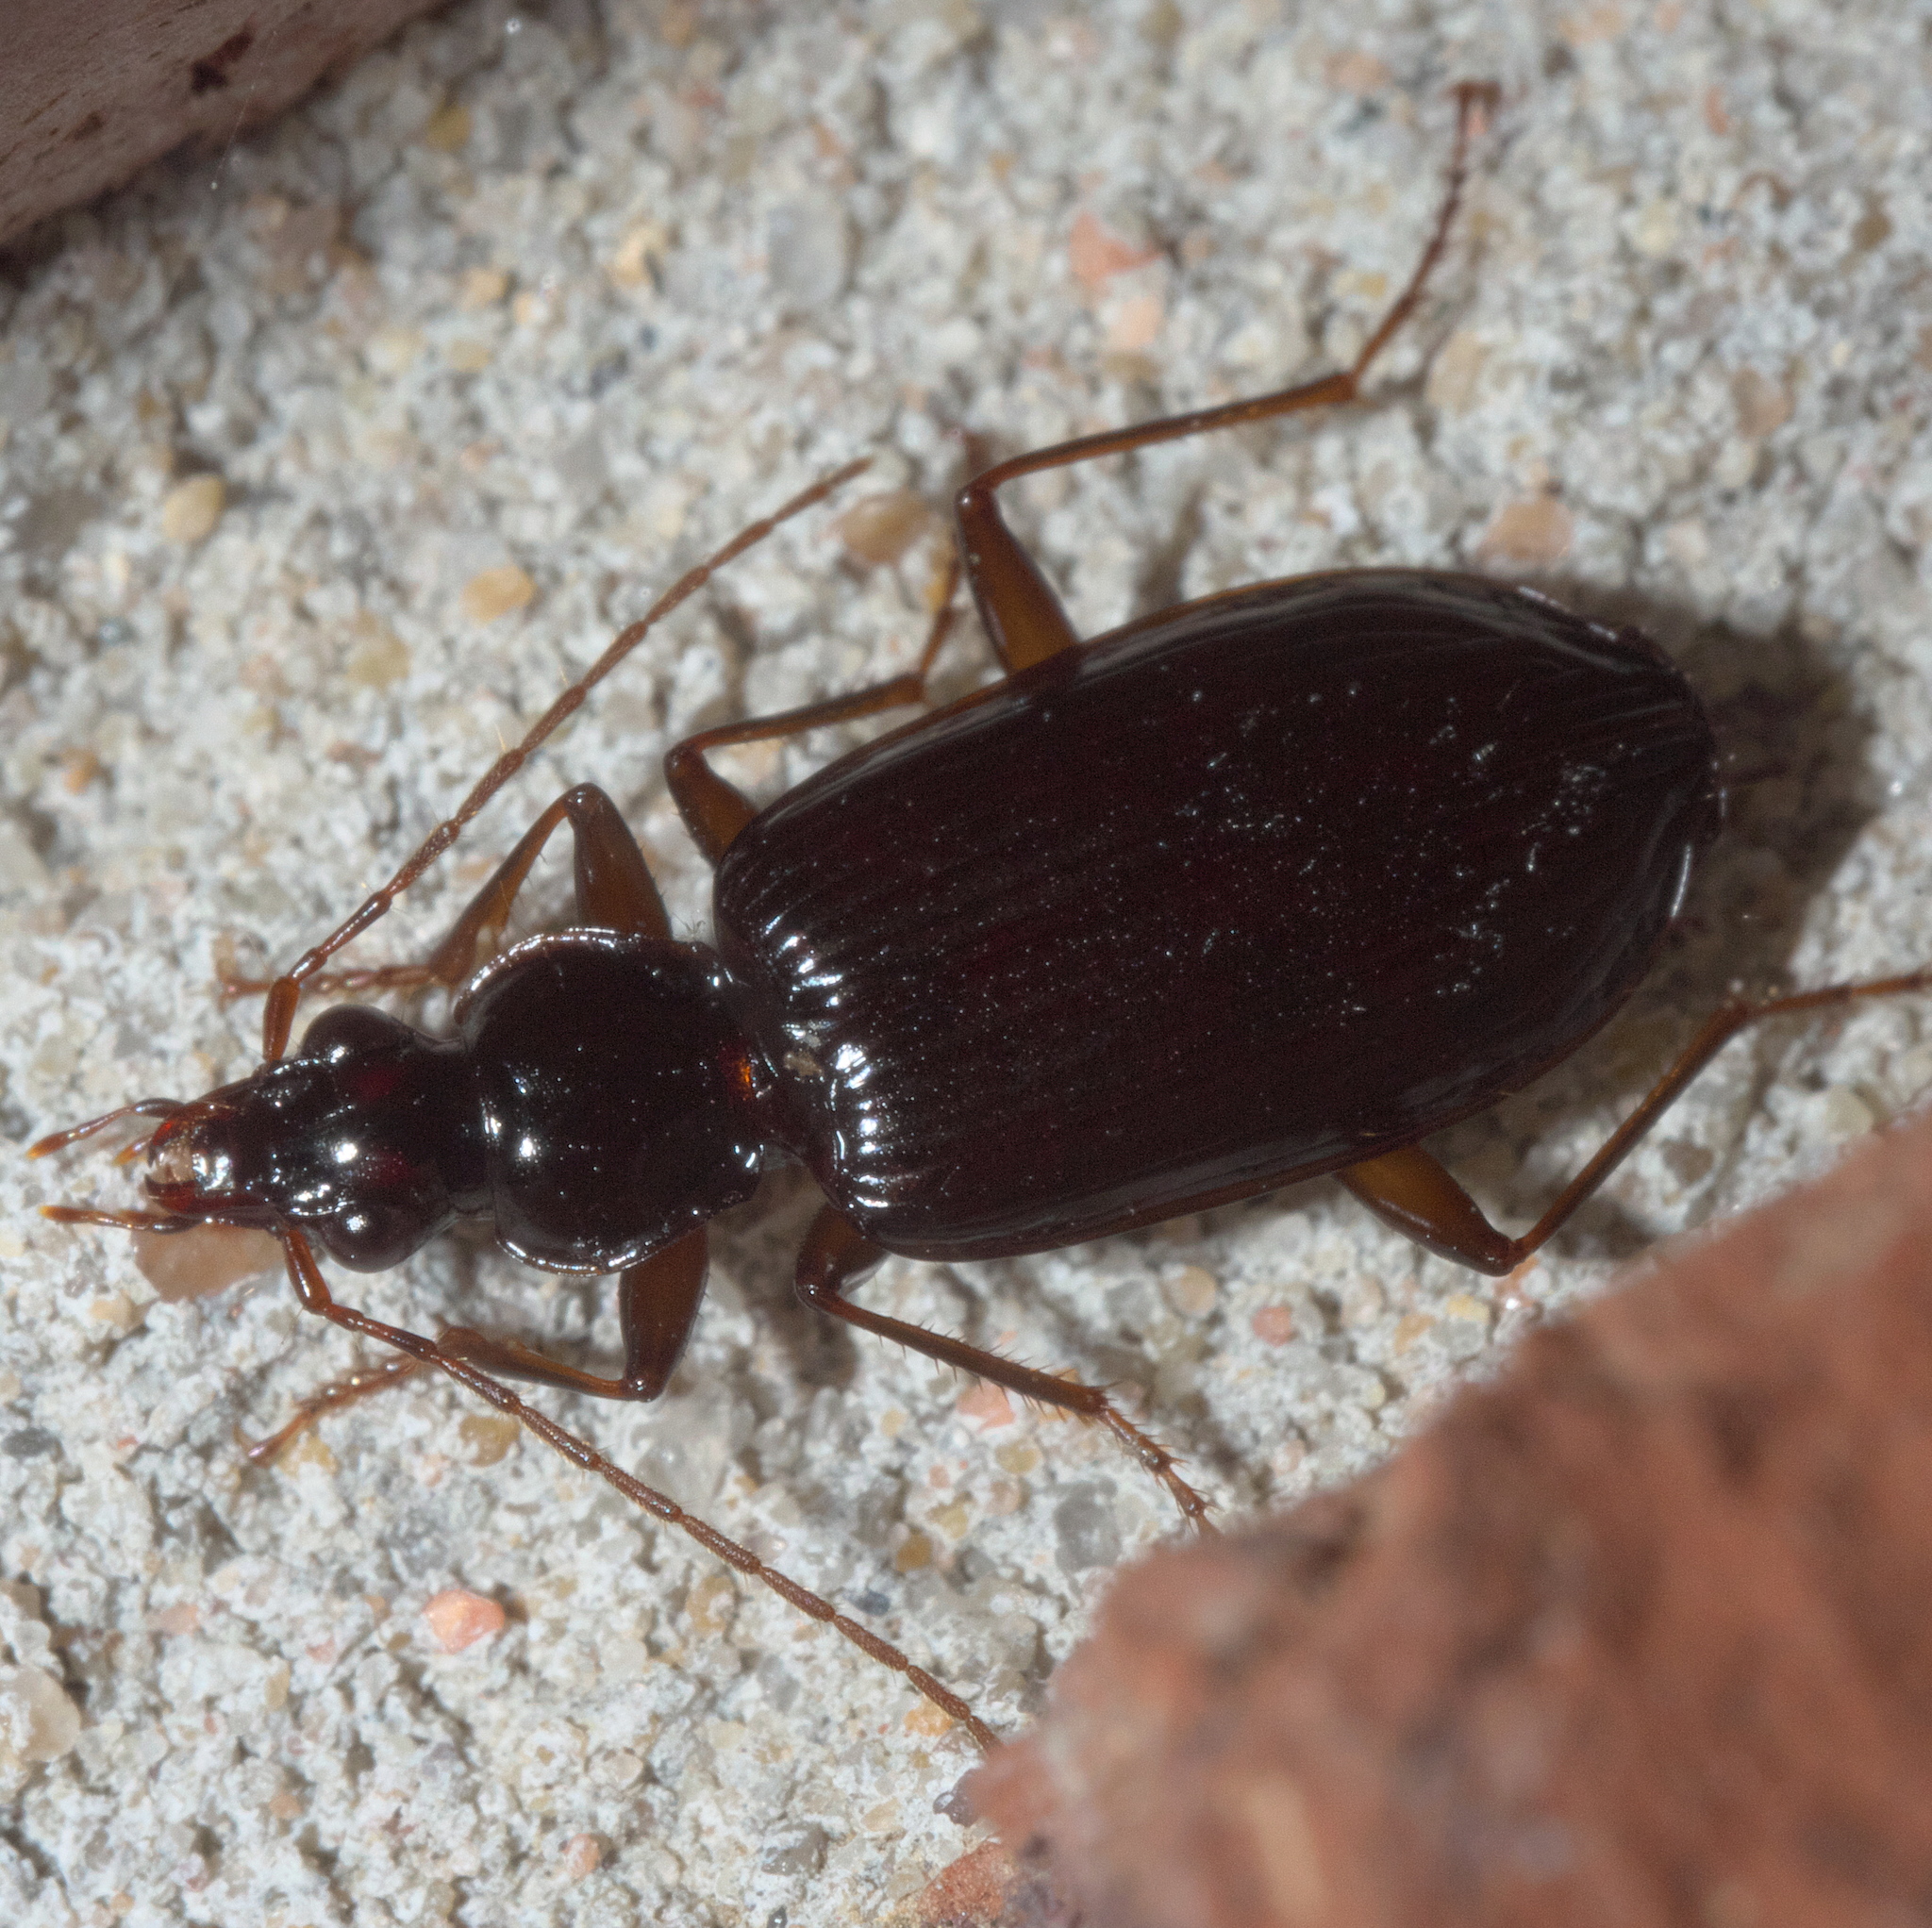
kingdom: Animalia
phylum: Arthropoda
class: Insecta
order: Coleoptera
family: Carabidae
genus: Platynus
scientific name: Platynus cincticollis
